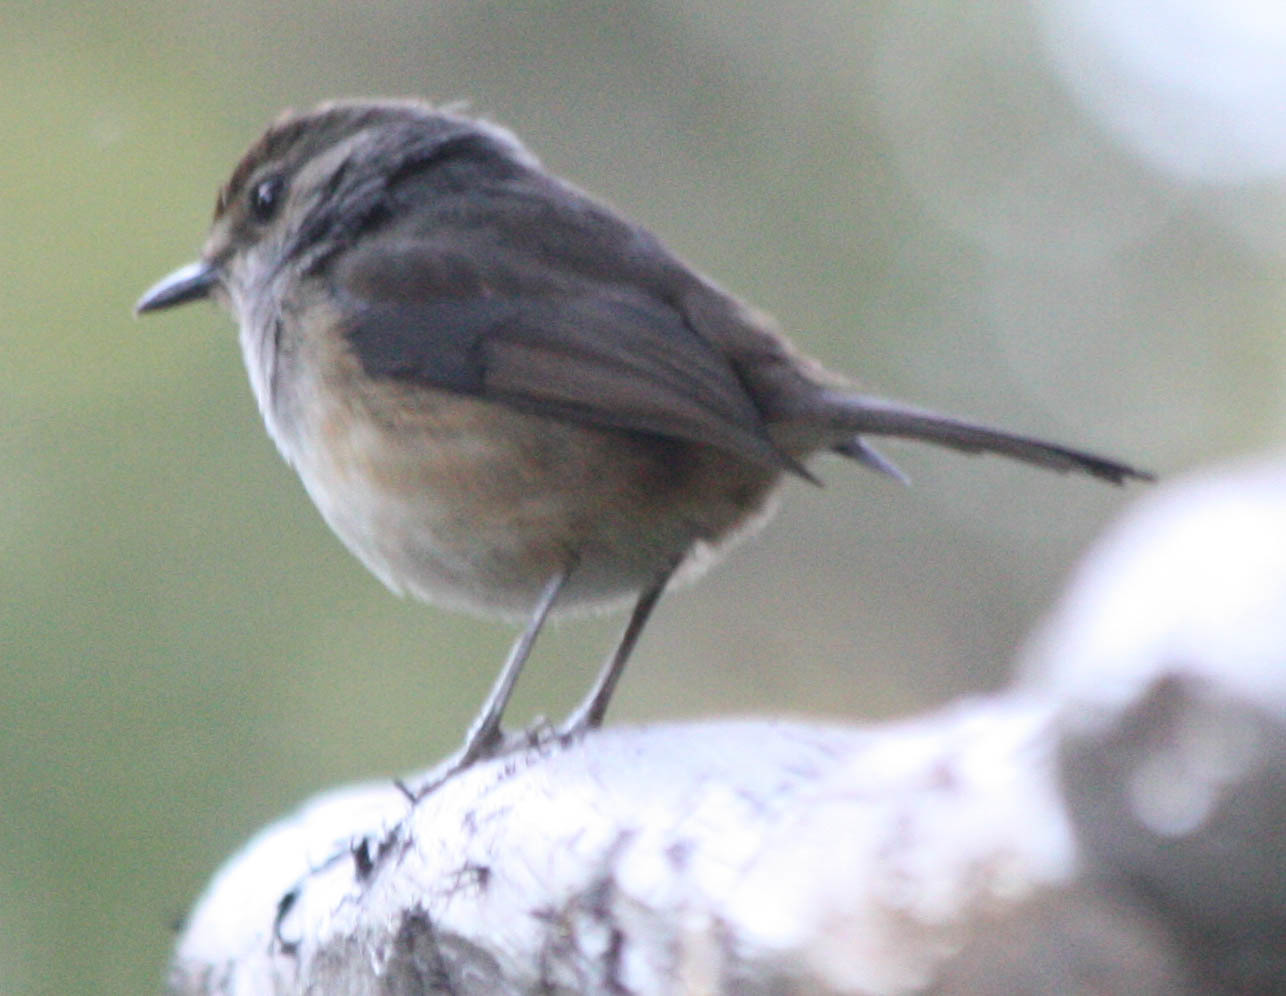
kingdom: Animalia
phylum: Chordata
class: Aves
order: Passeriformes
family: Muscicapidae
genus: Copsychus
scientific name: Copsychus albospecularis
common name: Madagascar magpie-robin
